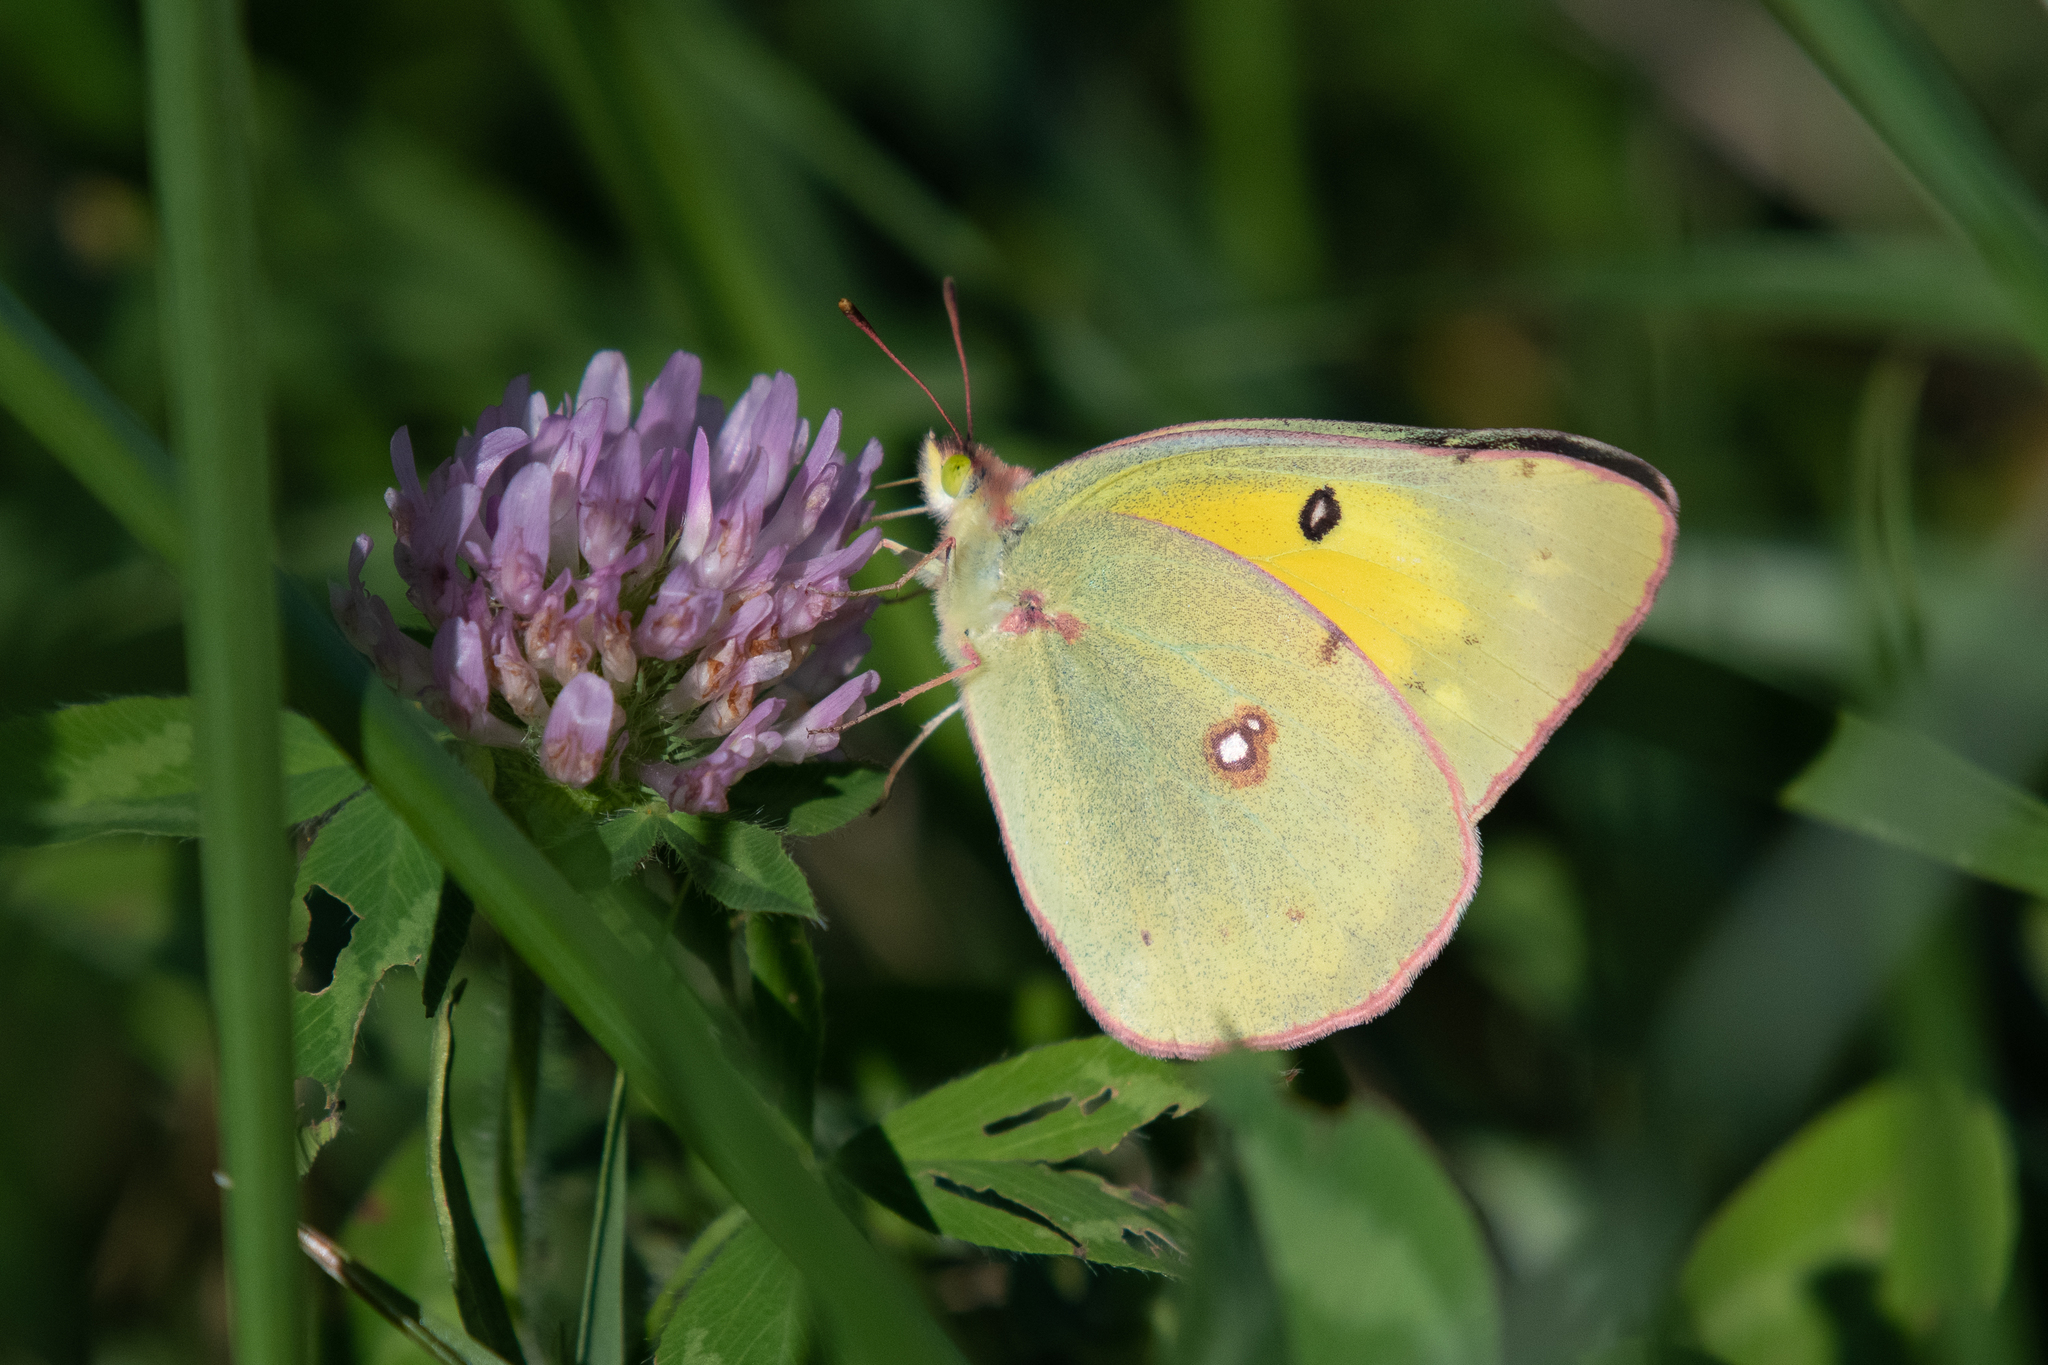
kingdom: Animalia
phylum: Arthropoda
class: Insecta
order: Lepidoptera
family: Pieridae
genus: Colias
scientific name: Colias eurytheme
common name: Alfalfa butterfly
